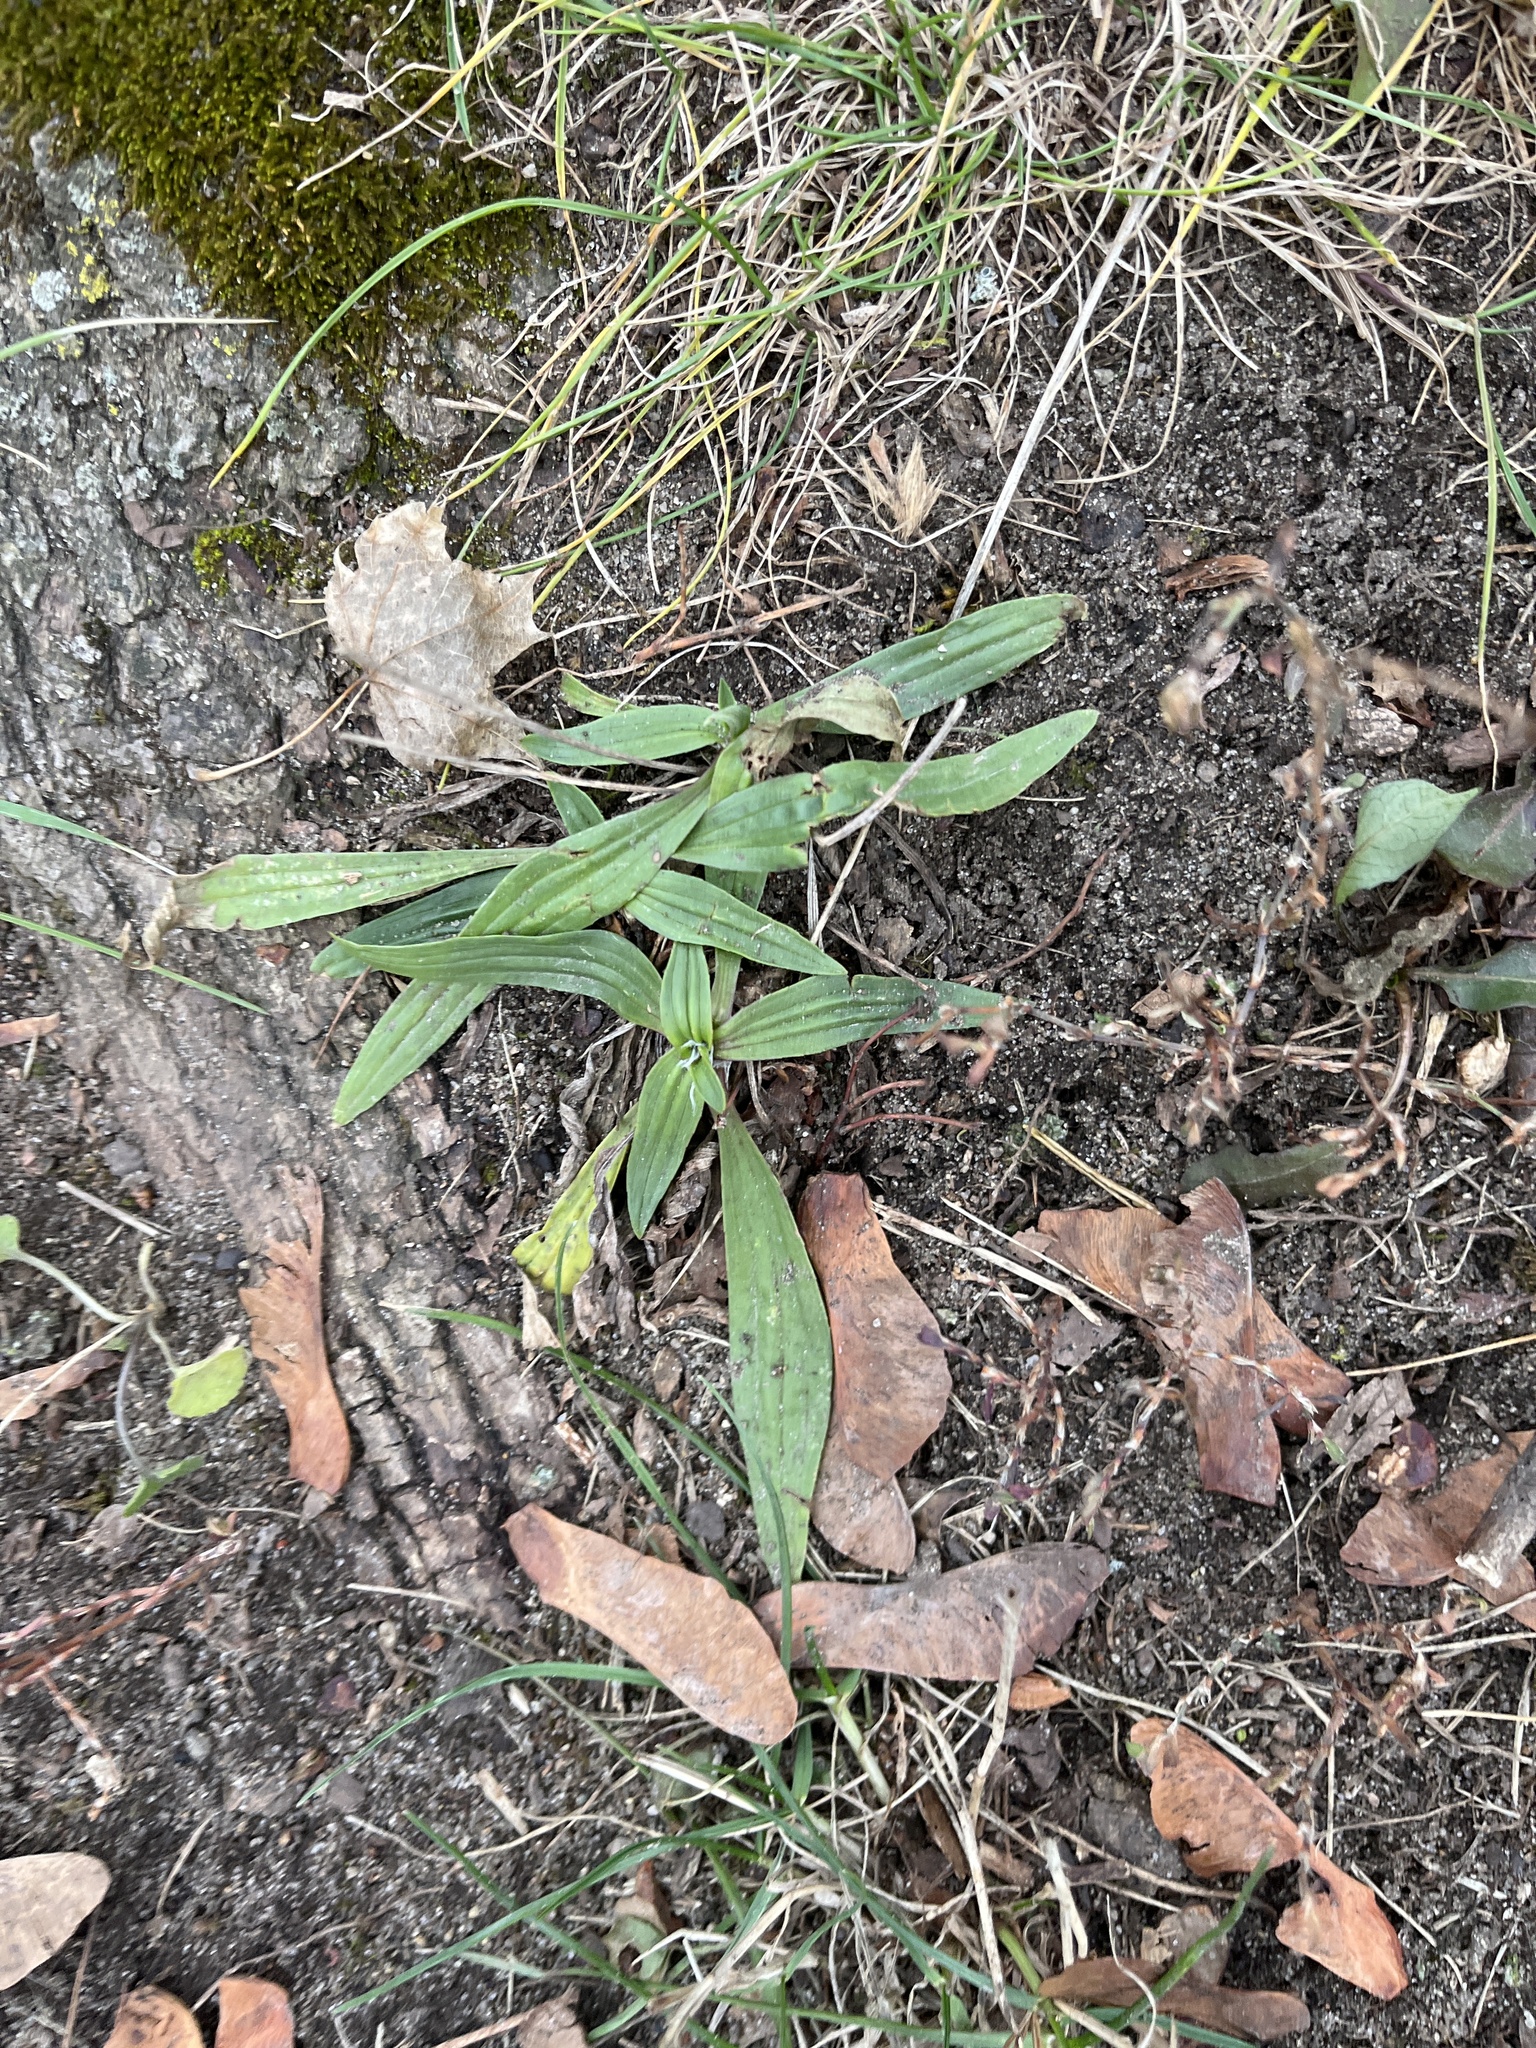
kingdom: Plantae
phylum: Tracheophyta
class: Magnoliopsida
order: Lamiales
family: Plantaginaceae
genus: Plantago
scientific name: Plantago lanceolata
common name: Ribwort plantain
